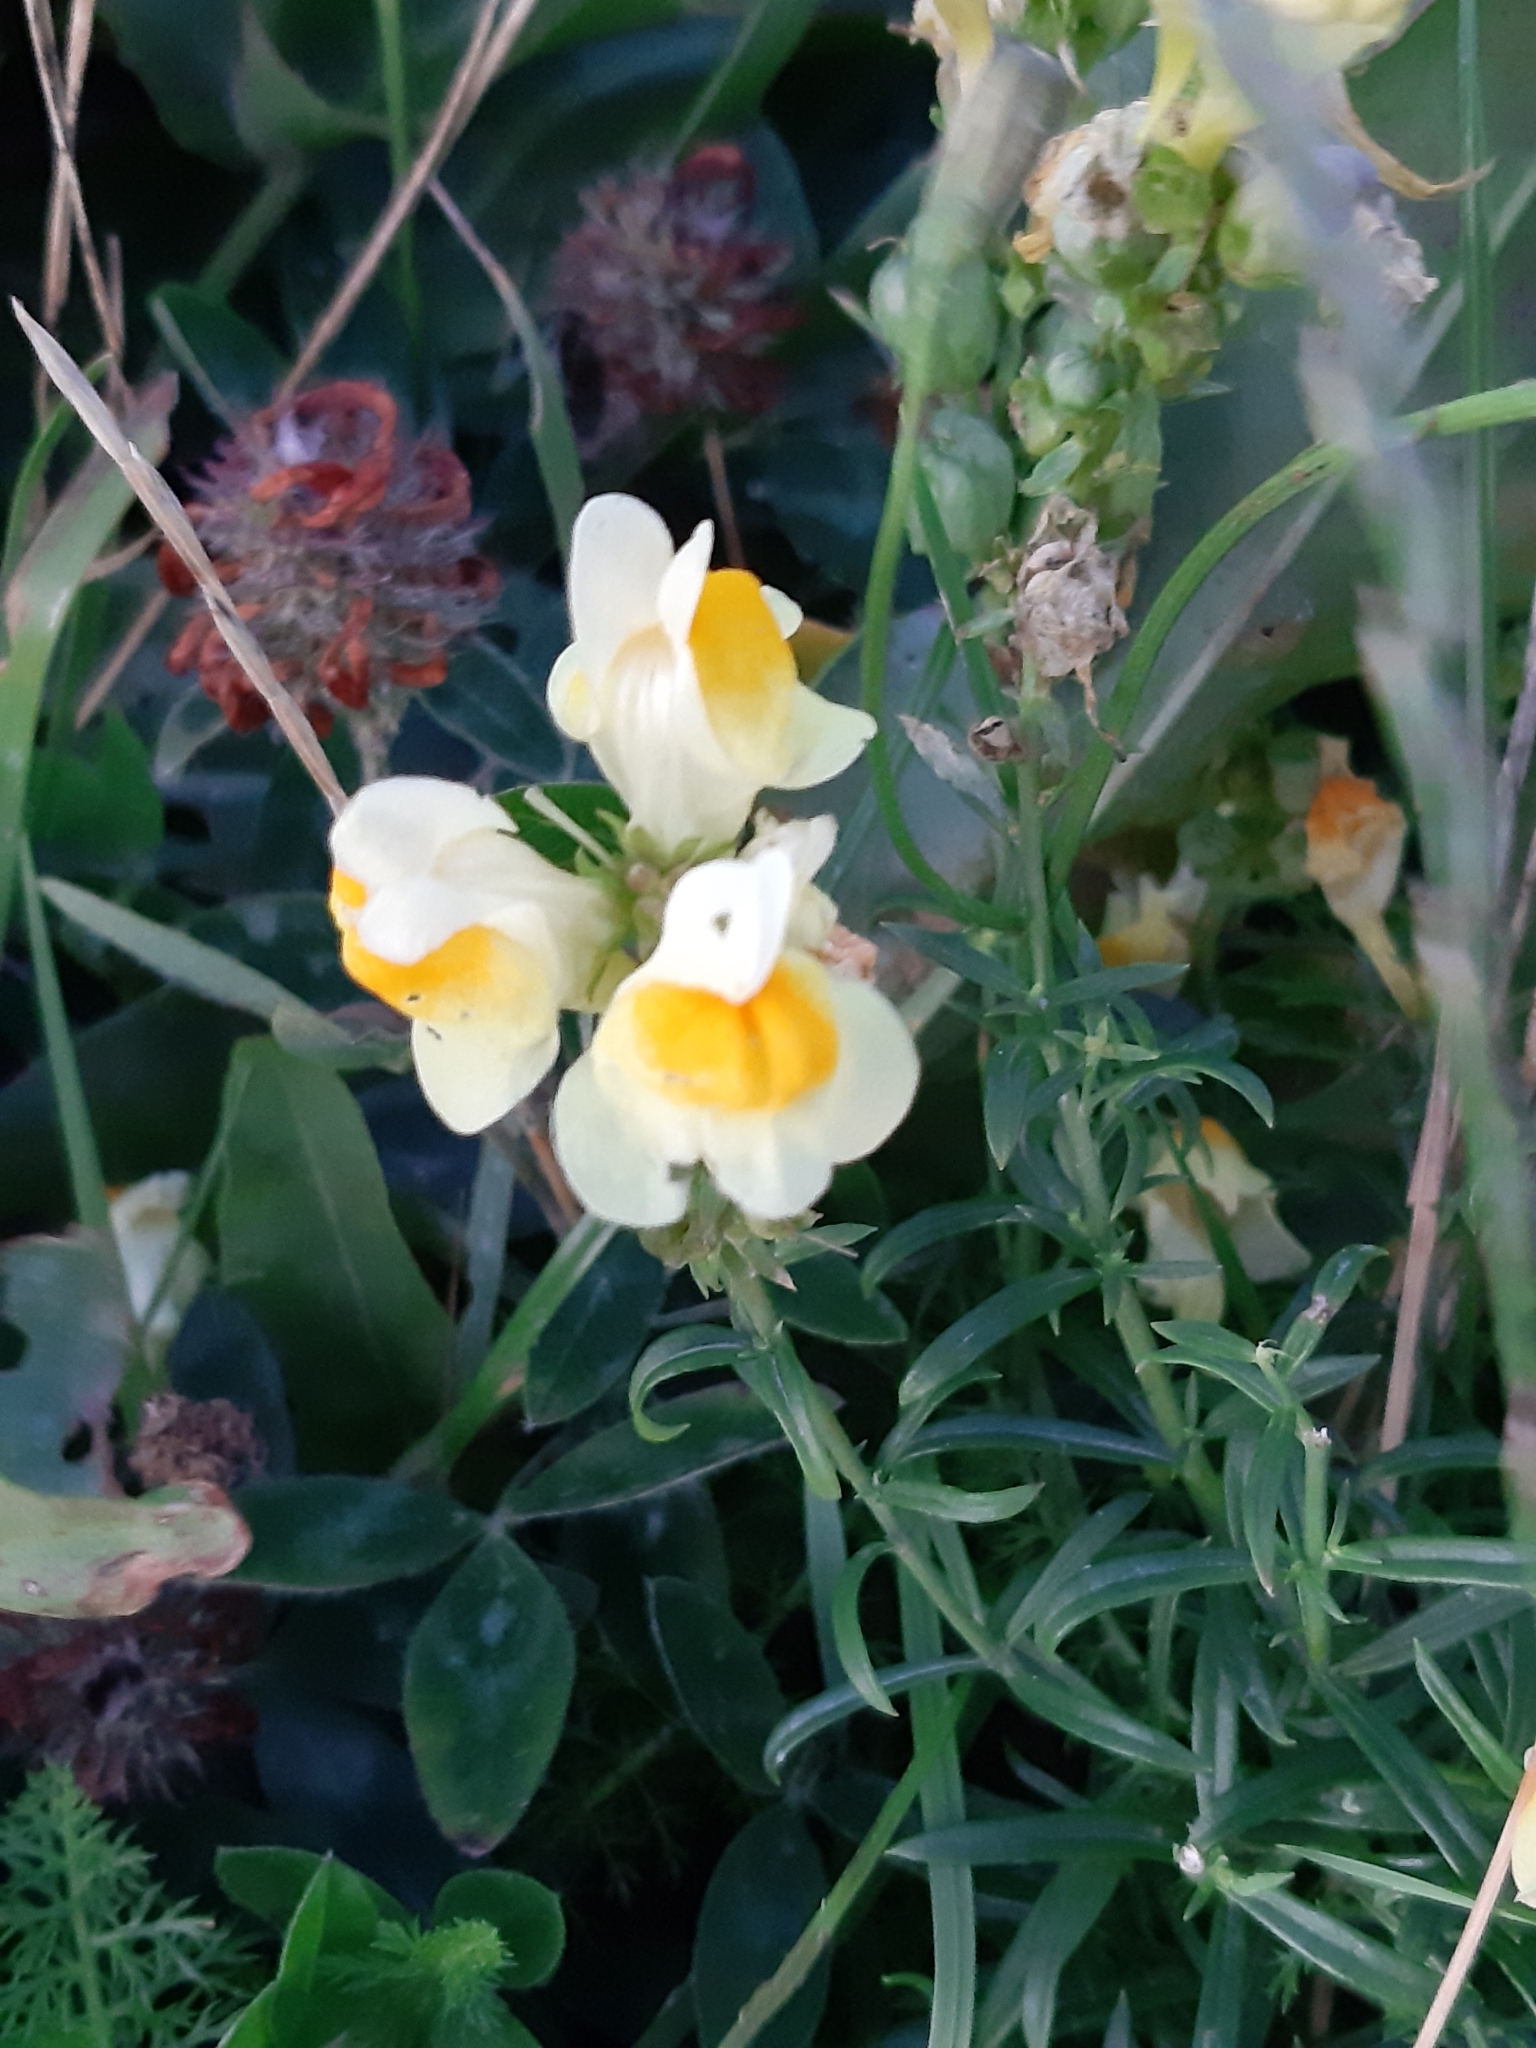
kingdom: Plantae
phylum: Tracheophyta
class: Magnoliopsida
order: Lamiales
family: Plantaginaceae
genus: Linaria
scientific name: Linaria vulgaris
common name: Butter and eggs
